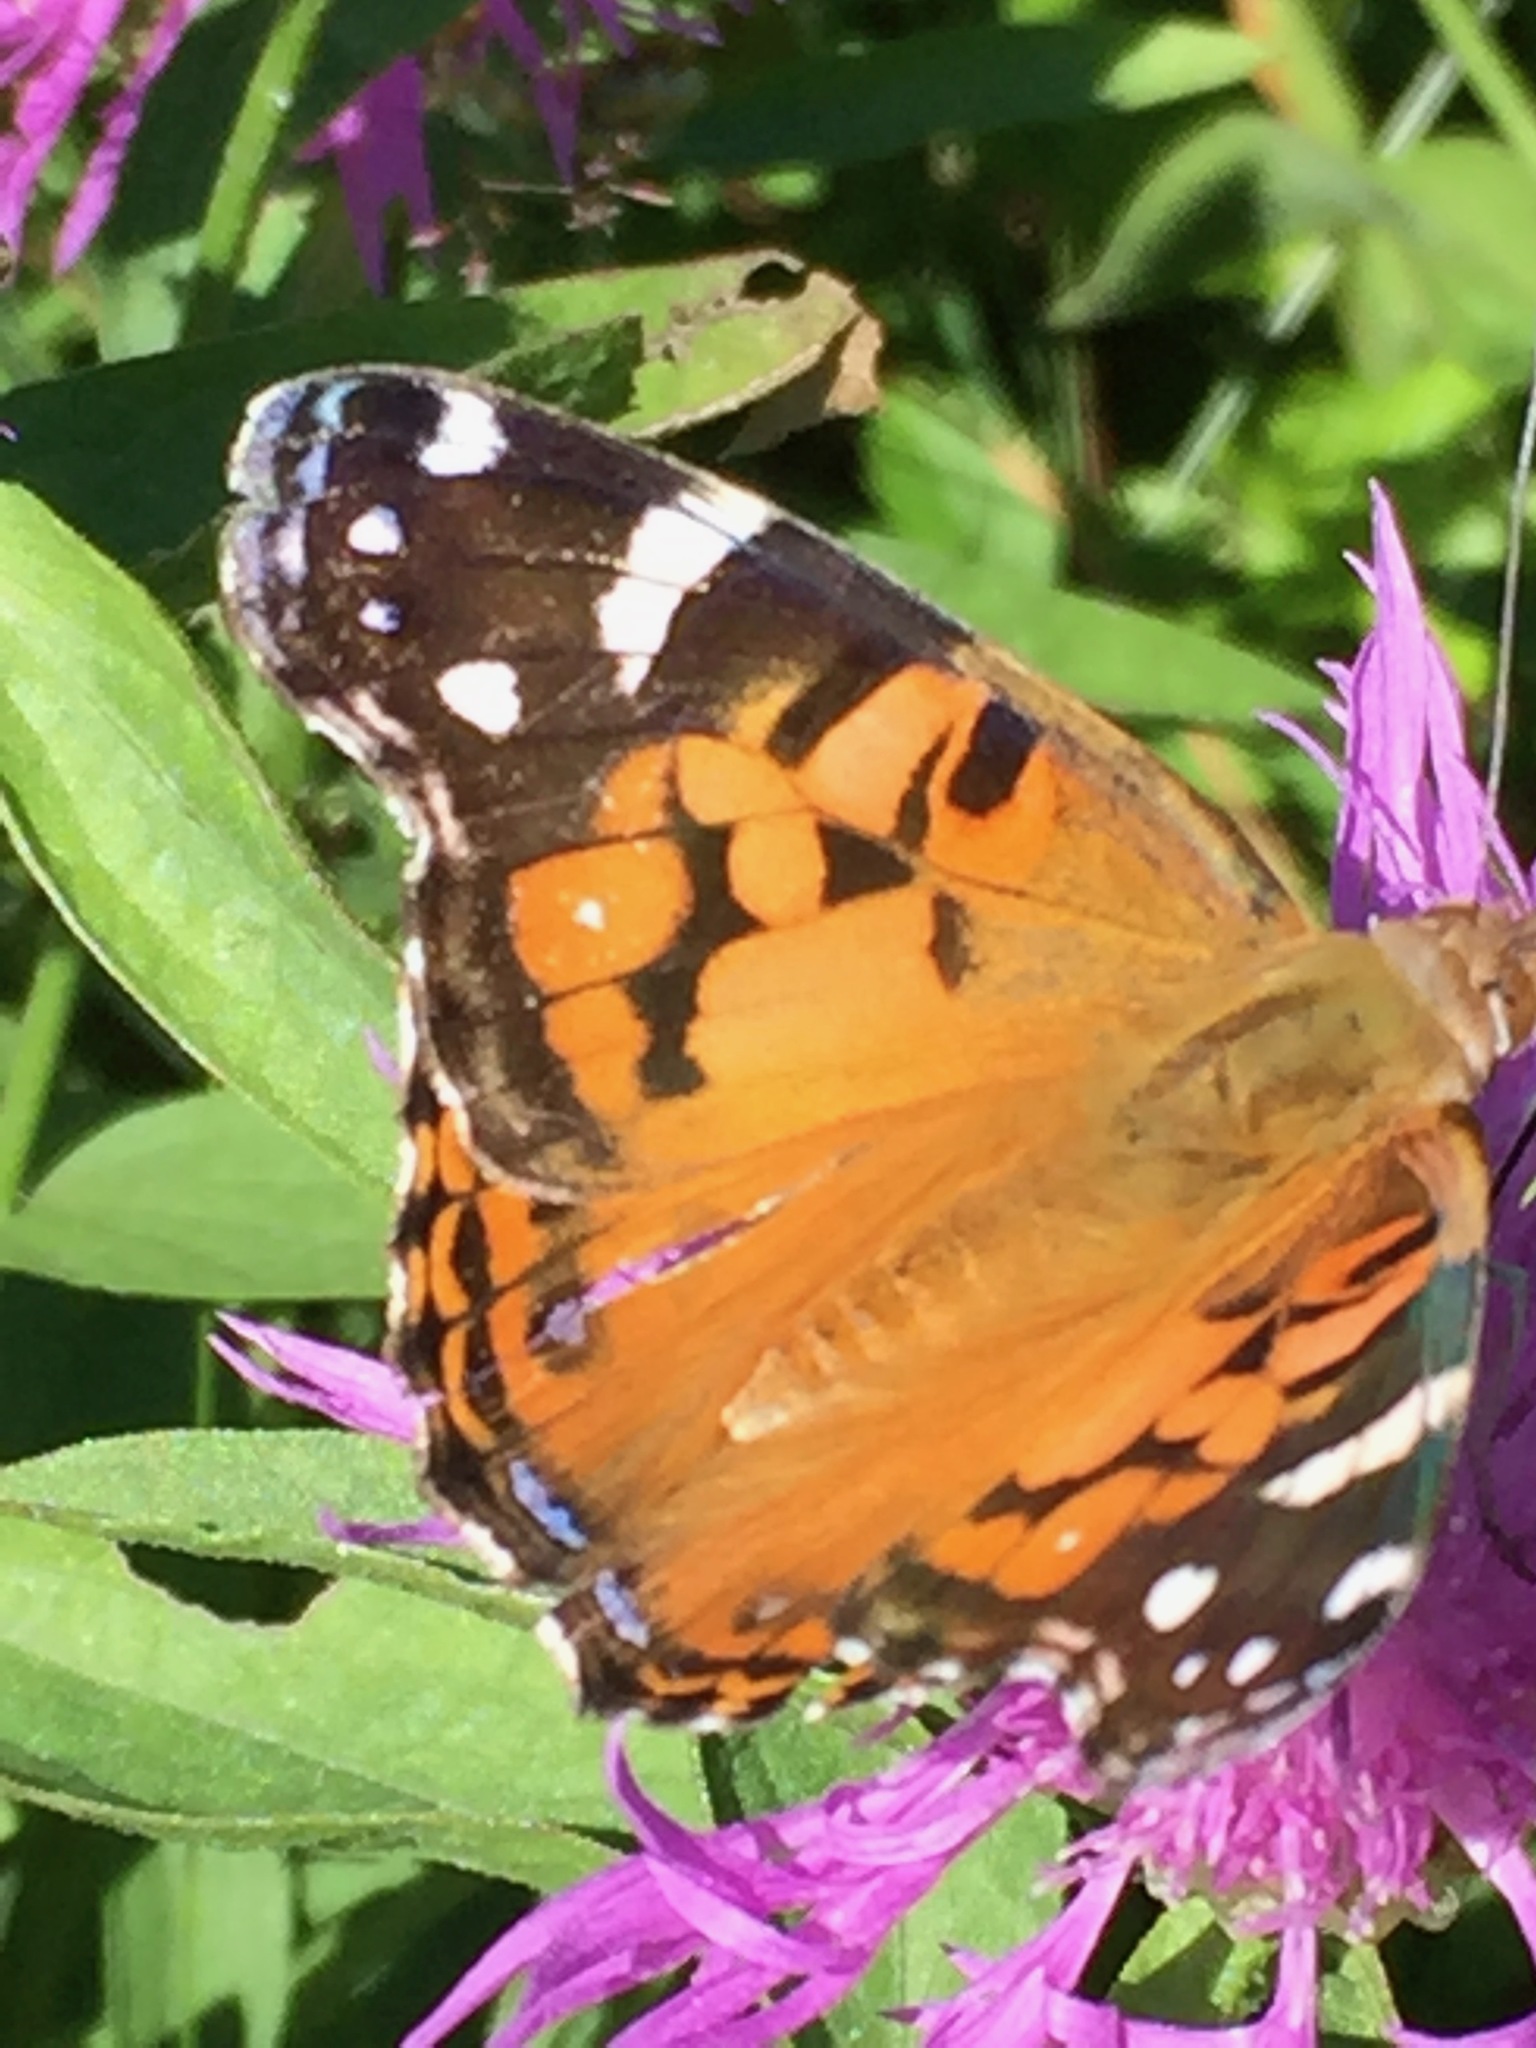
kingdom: Animalia
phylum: Arthropoda
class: Insecta
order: Lepidoptera
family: Nymphalidae
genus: Vanessa
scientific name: Vanessa virginiensis
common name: American lady
